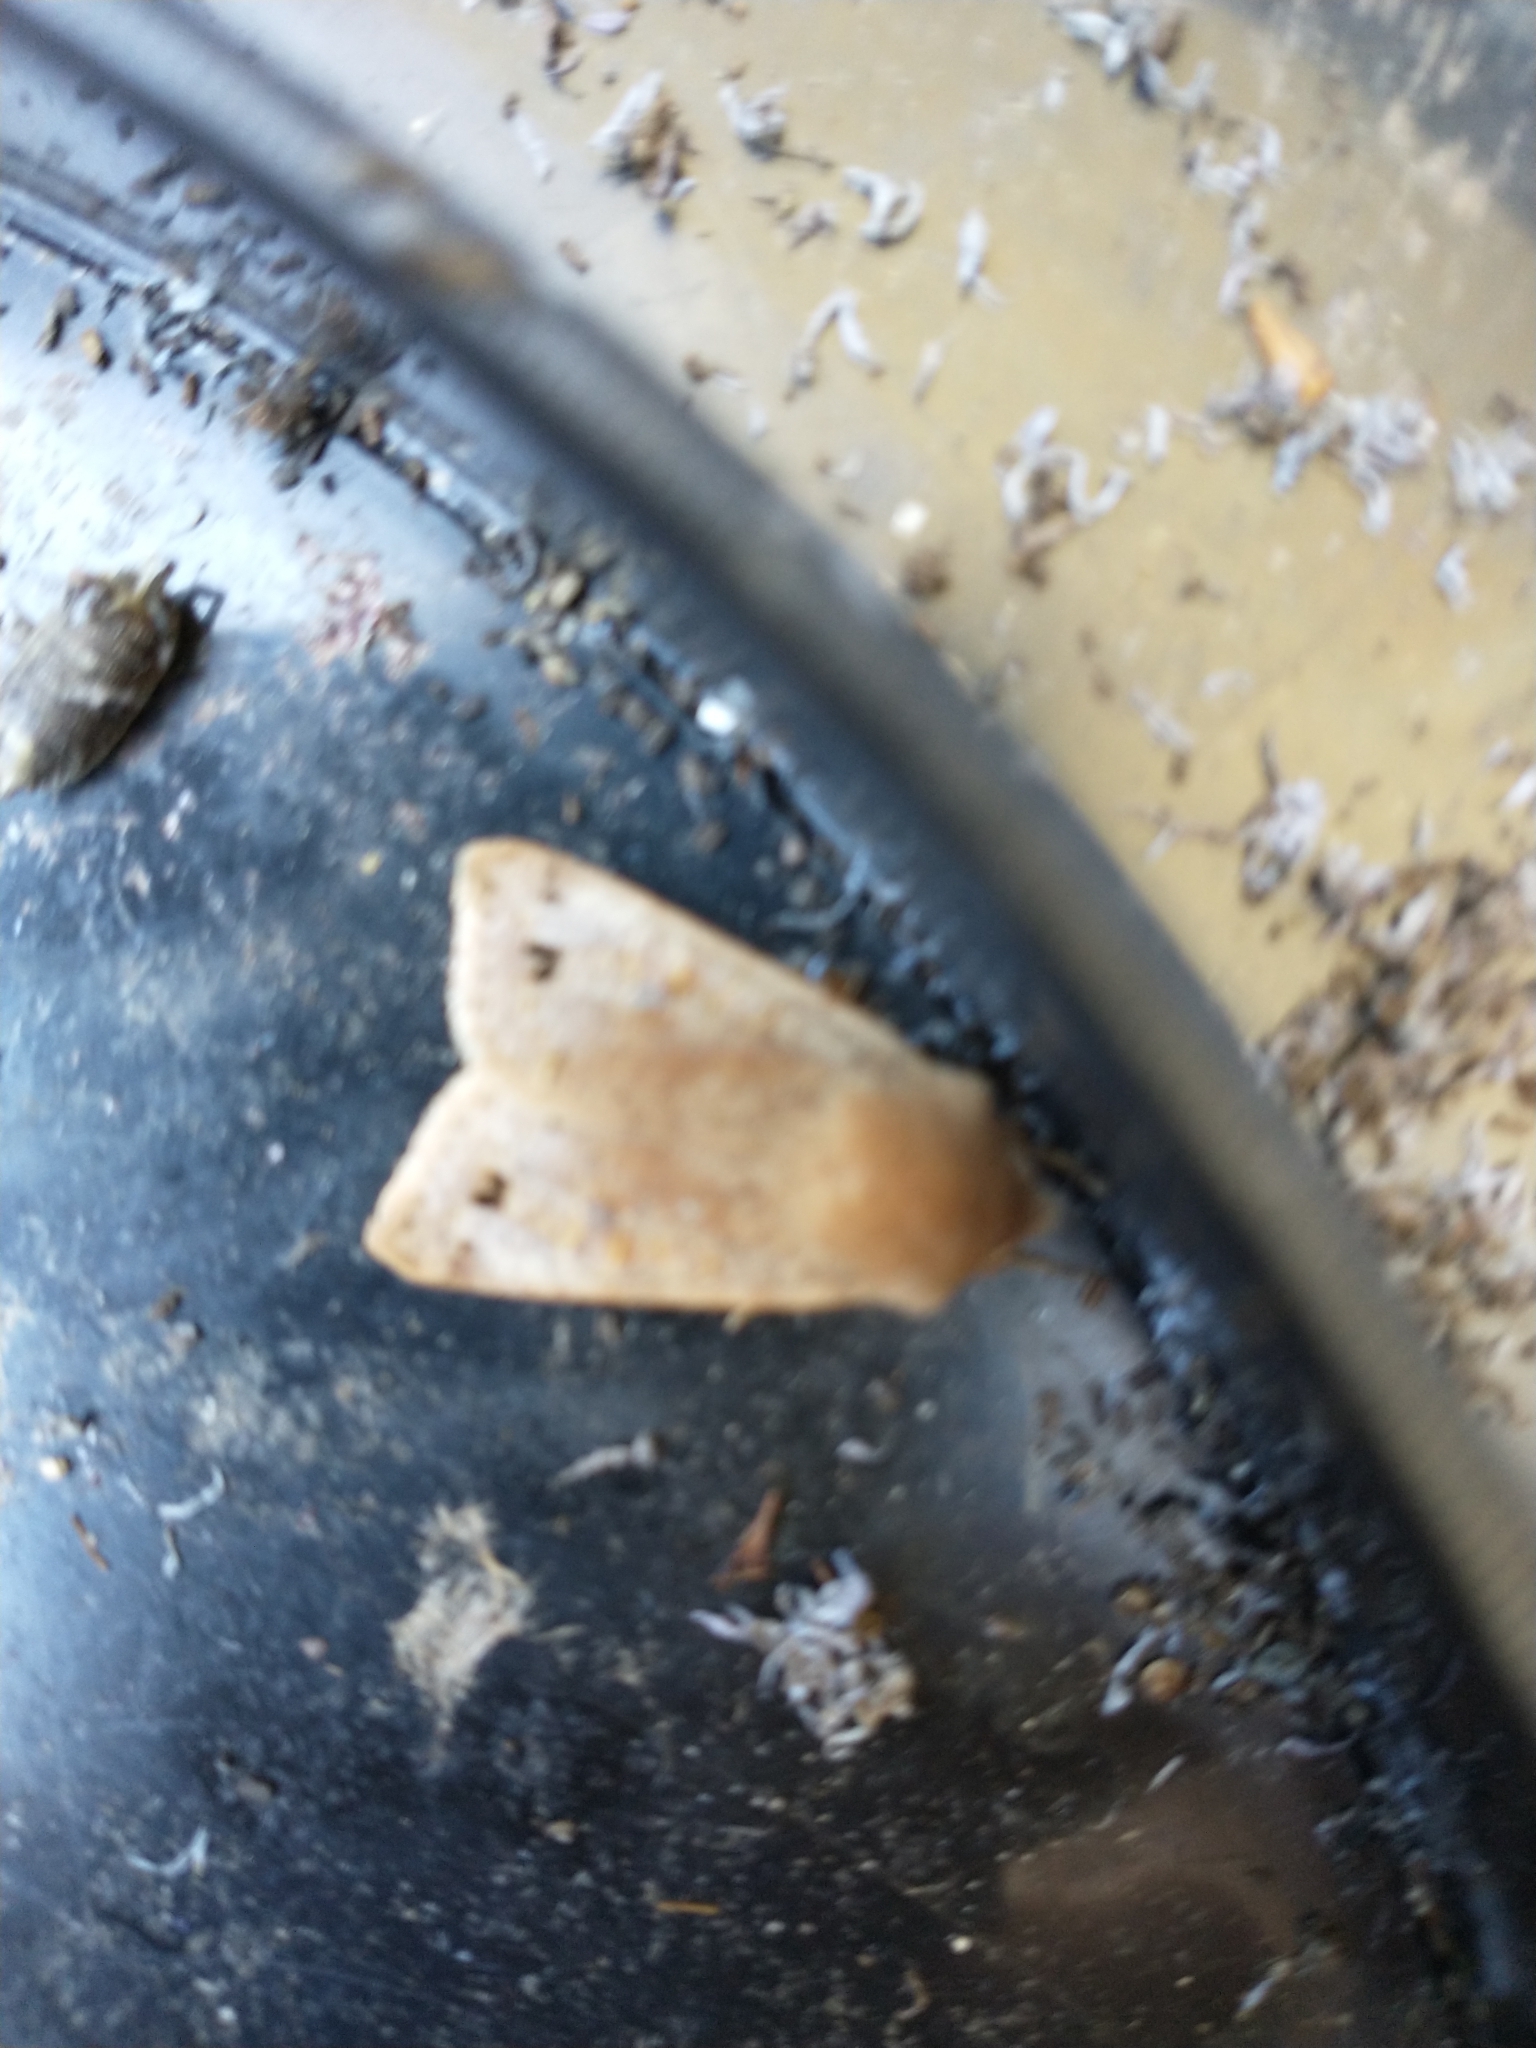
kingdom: Animalia
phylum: Arthropoda
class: Insecta
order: Lepidoptera
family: Noctuidae
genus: Anorthoa
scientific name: Anorthoa munda
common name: Twin-spotted quaker
